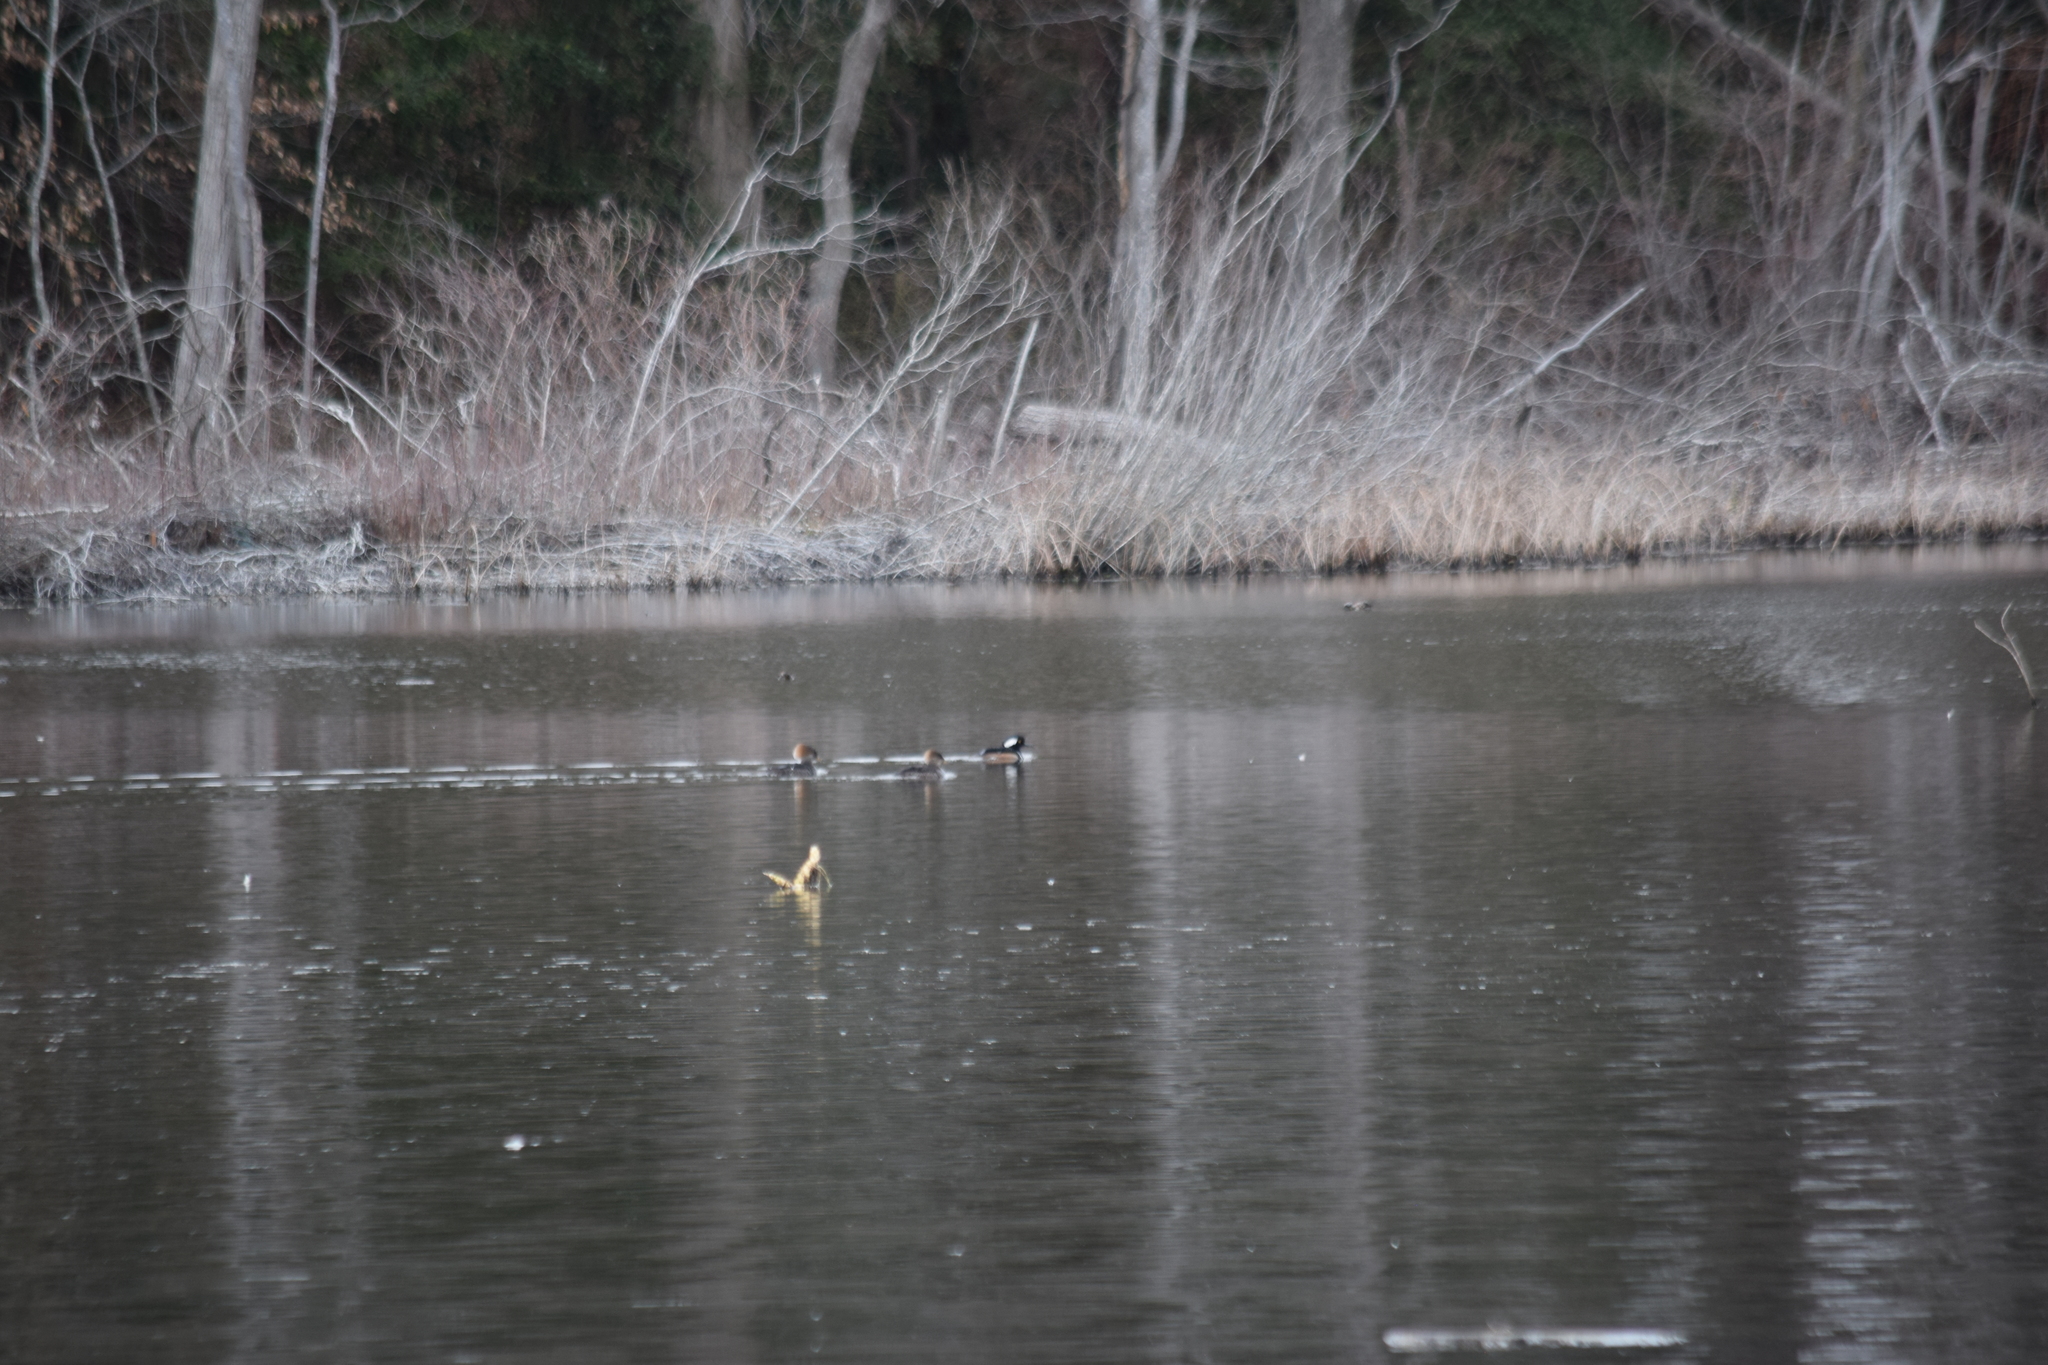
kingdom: Animalia
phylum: Chordata
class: Aves
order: Anseriformes
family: Anatidae
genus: Lophodytes
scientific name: Lophodytes cucullatus
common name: Hooded merganser
